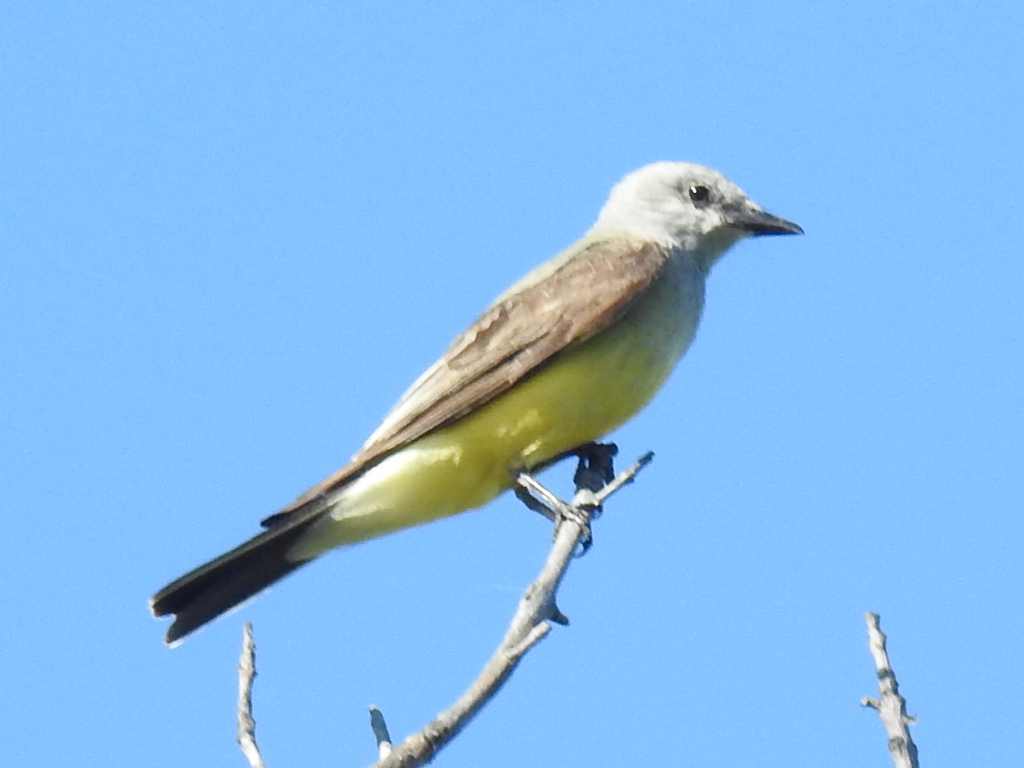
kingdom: Animalia
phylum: Chordata
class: Aves
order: Passeriformes
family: Tyrannidae
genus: Tyrannus
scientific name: Tyrannus verticalis
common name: Western kingbird
